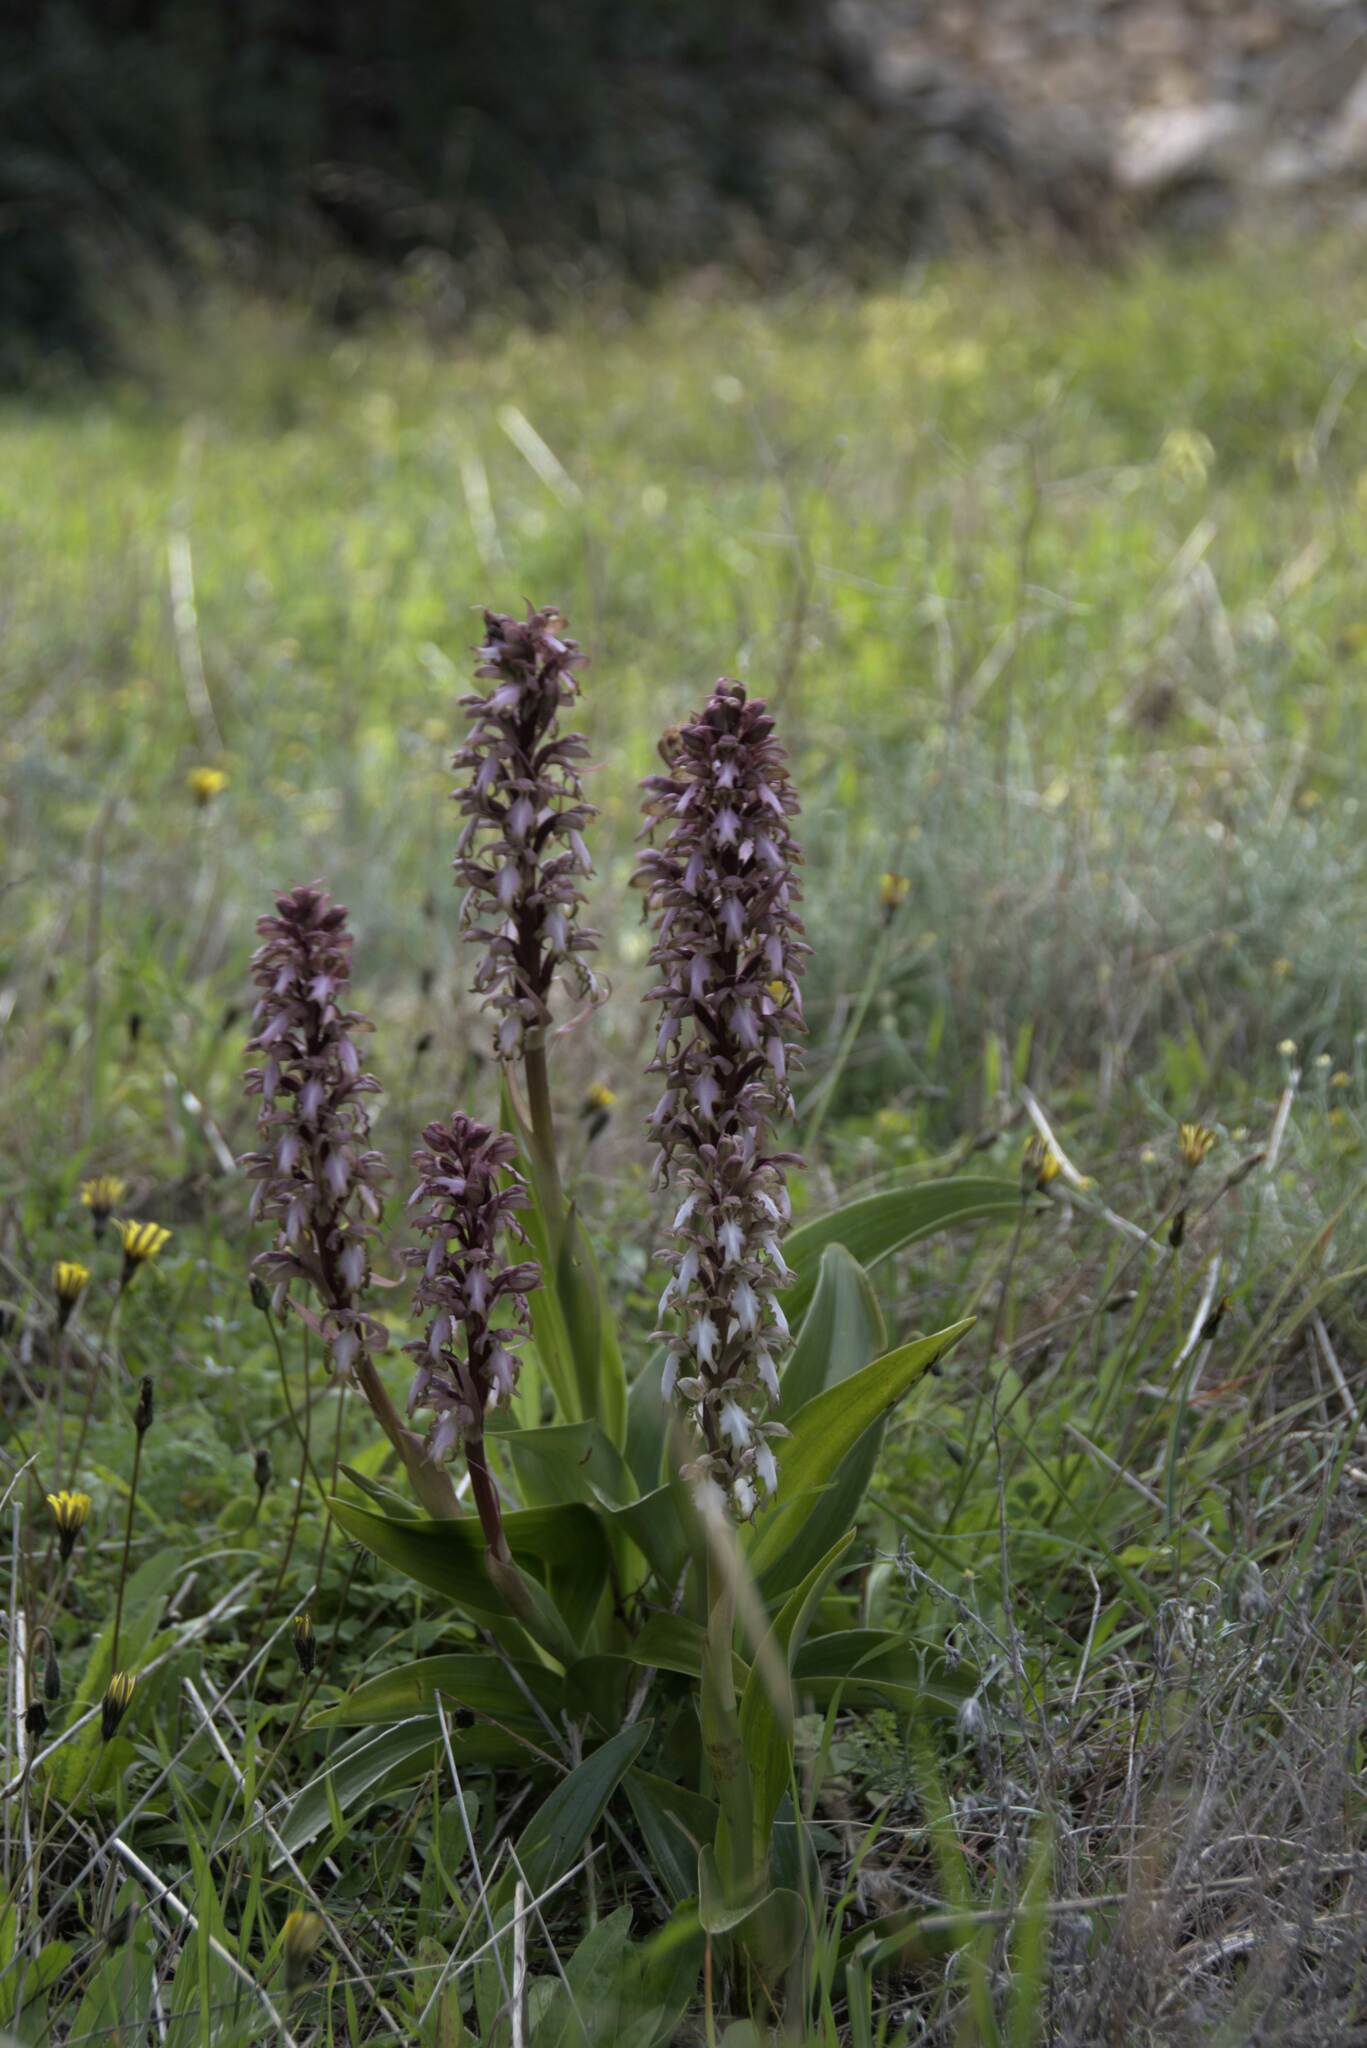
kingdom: Plantae
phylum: Tracheophyta
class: Liliopsida
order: Asparagales
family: Orchidaceae
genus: Himantoglossum
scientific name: Himantoglossum robertianum
